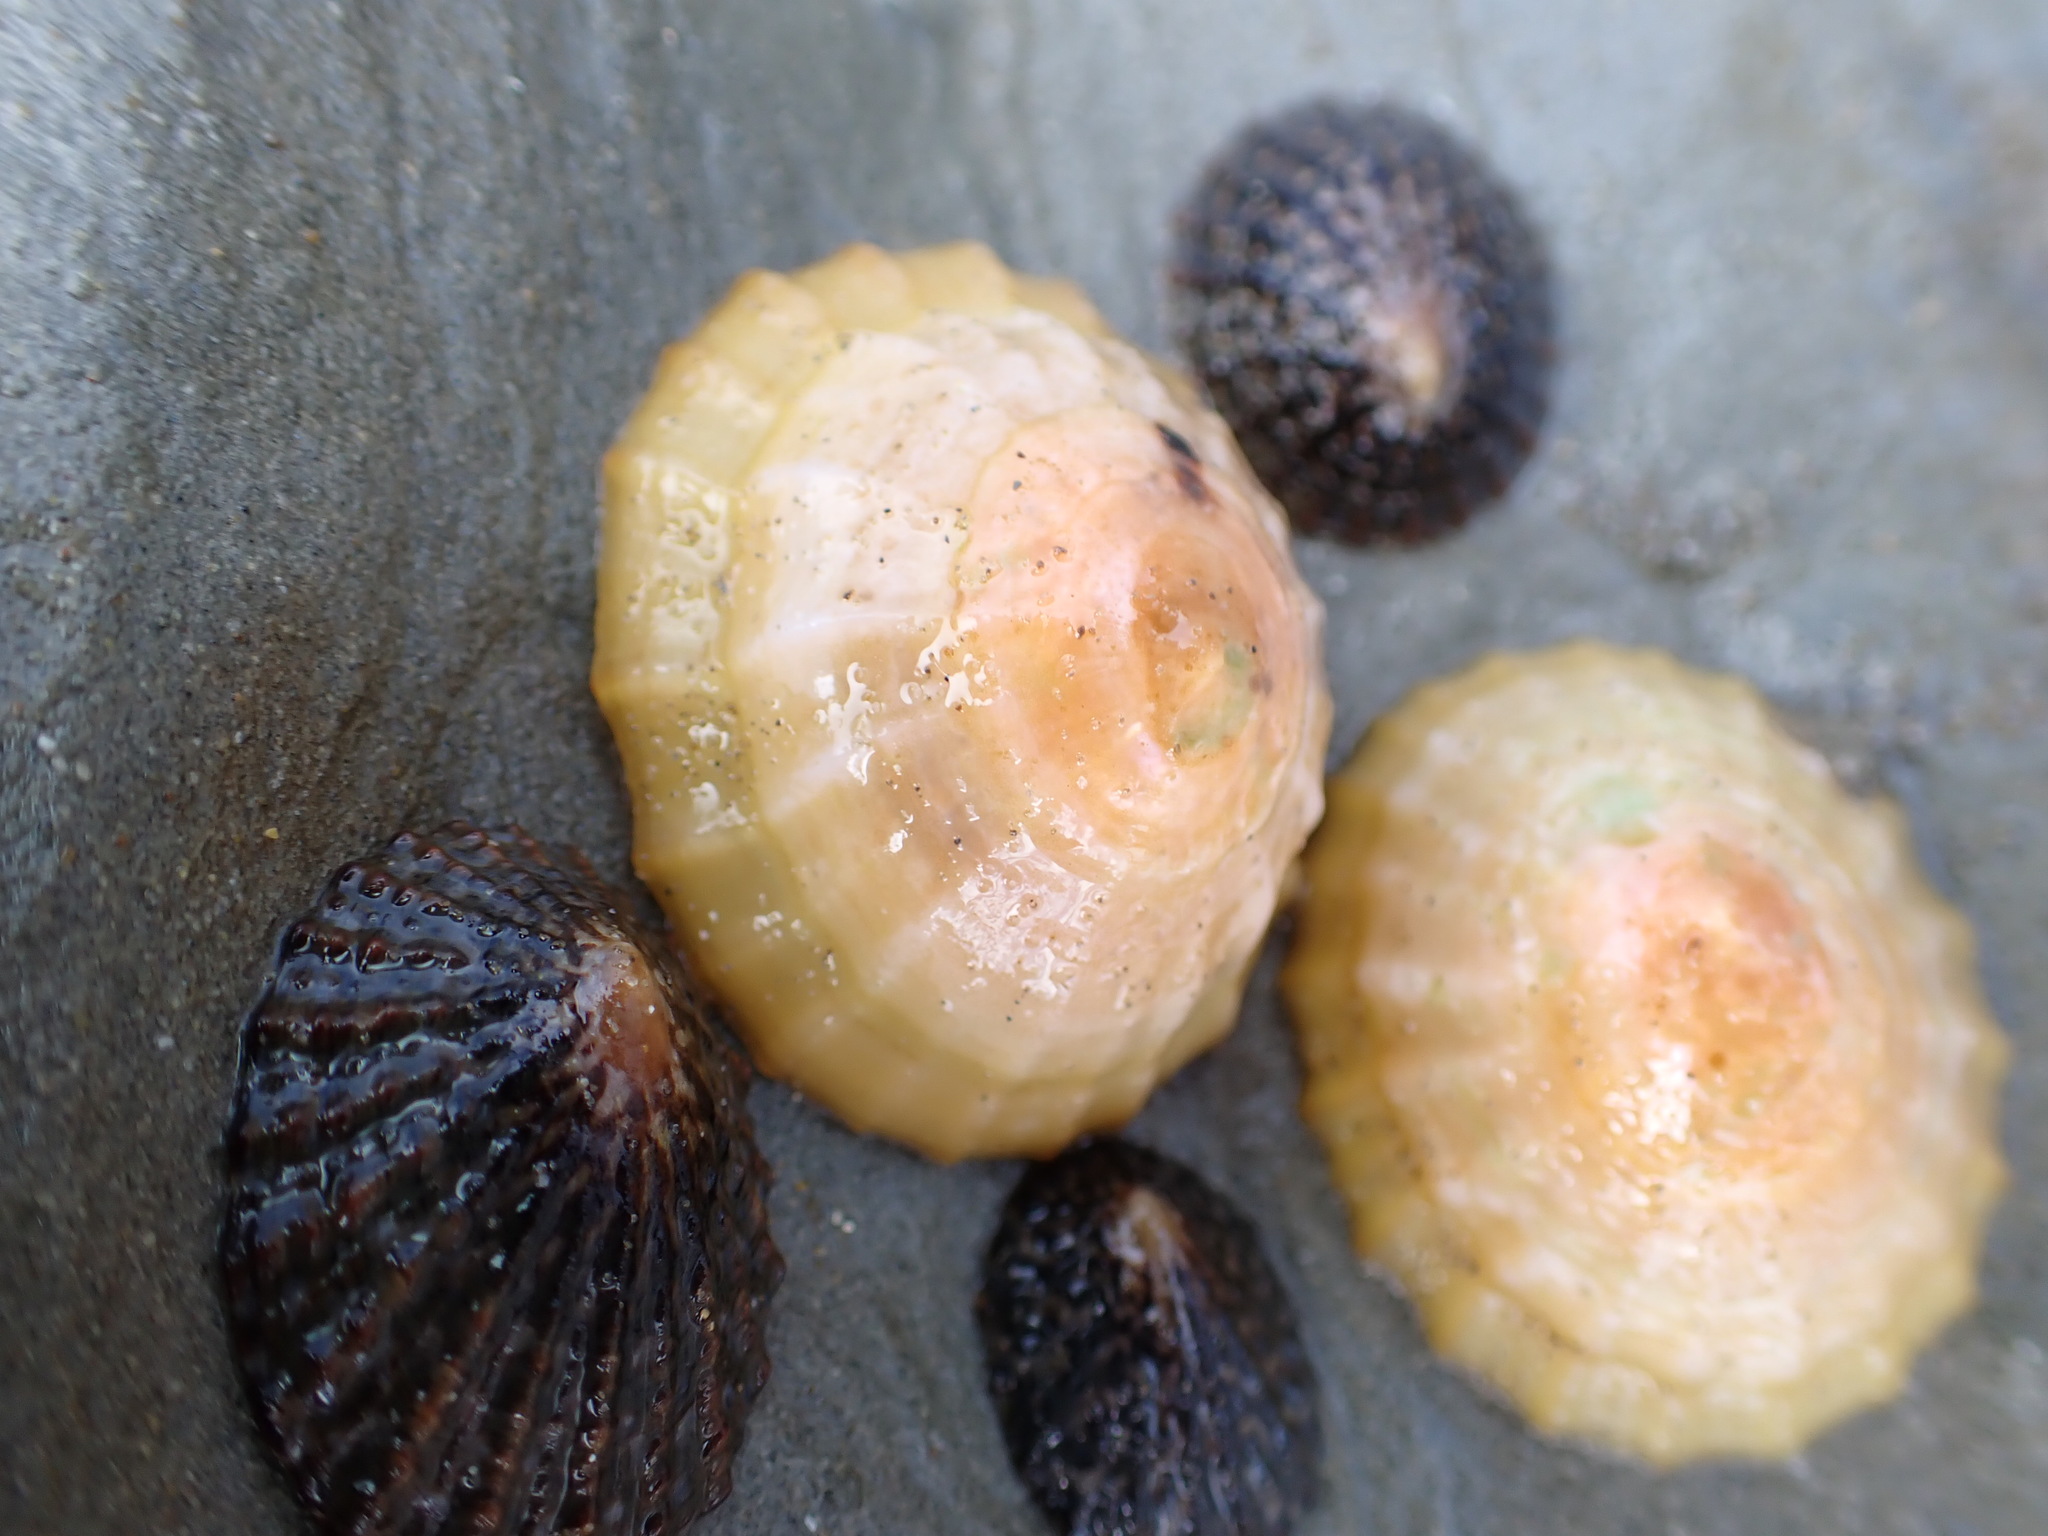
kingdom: Animalia
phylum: Mollusca
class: Gastropoda
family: Nacellidae
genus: Cellana
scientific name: Cellana flava
